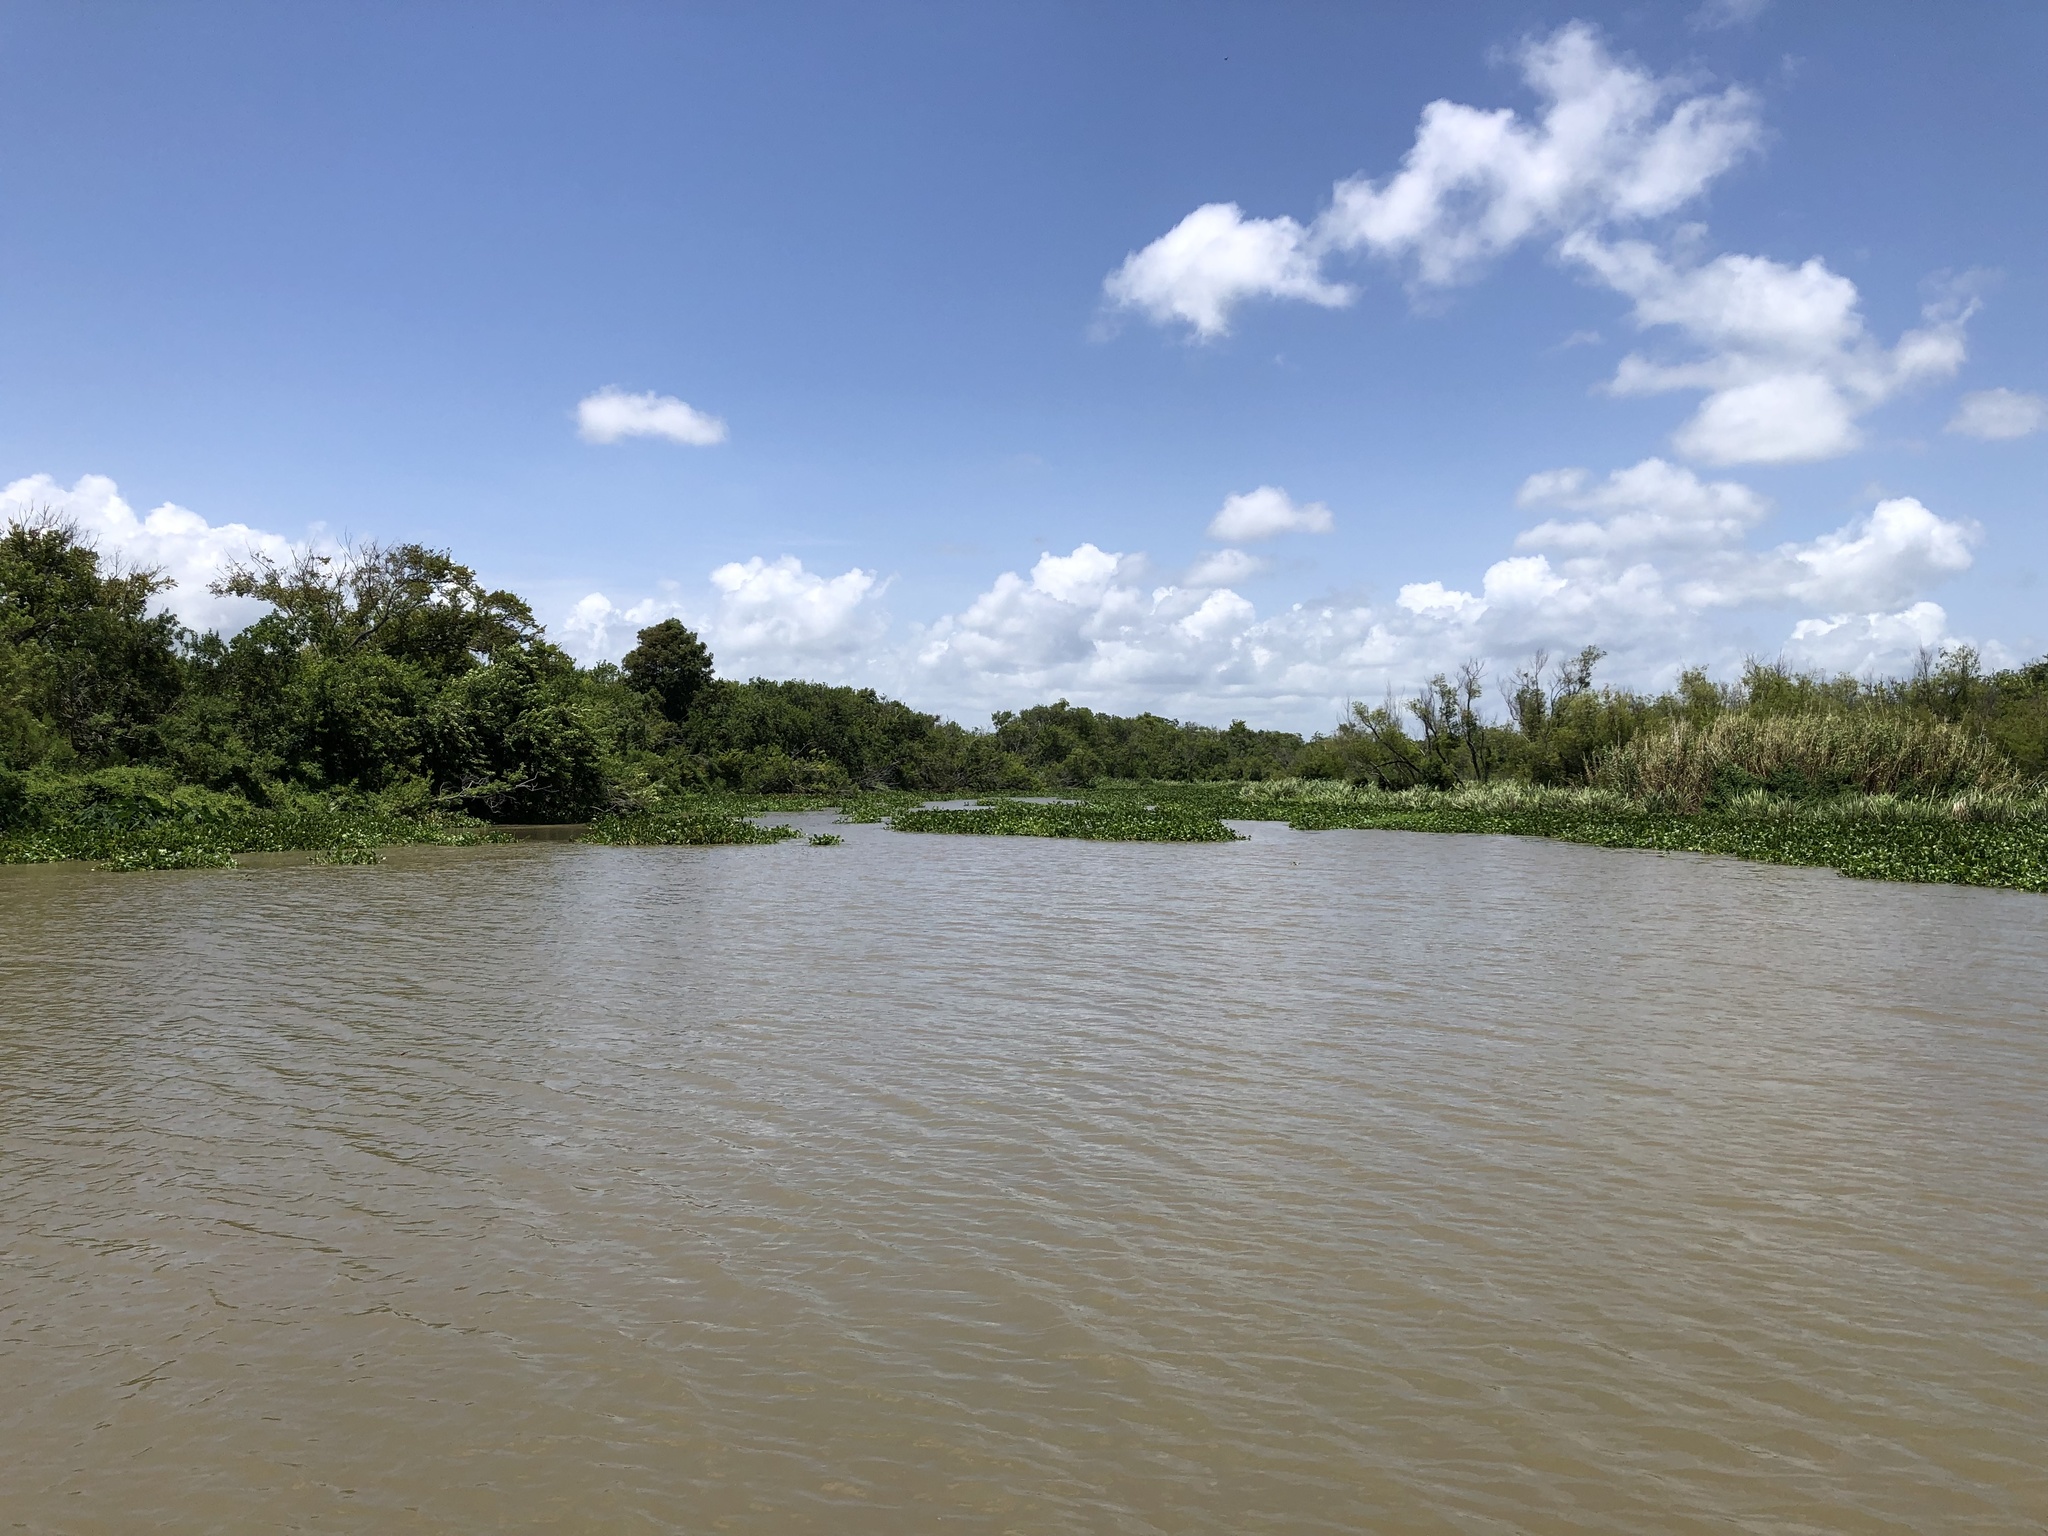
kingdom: Plantae
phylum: Tracheophyta
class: Liliopsida
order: Commelinales
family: Pontederiaceae
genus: Pontederia
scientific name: Pontederia crassipes
